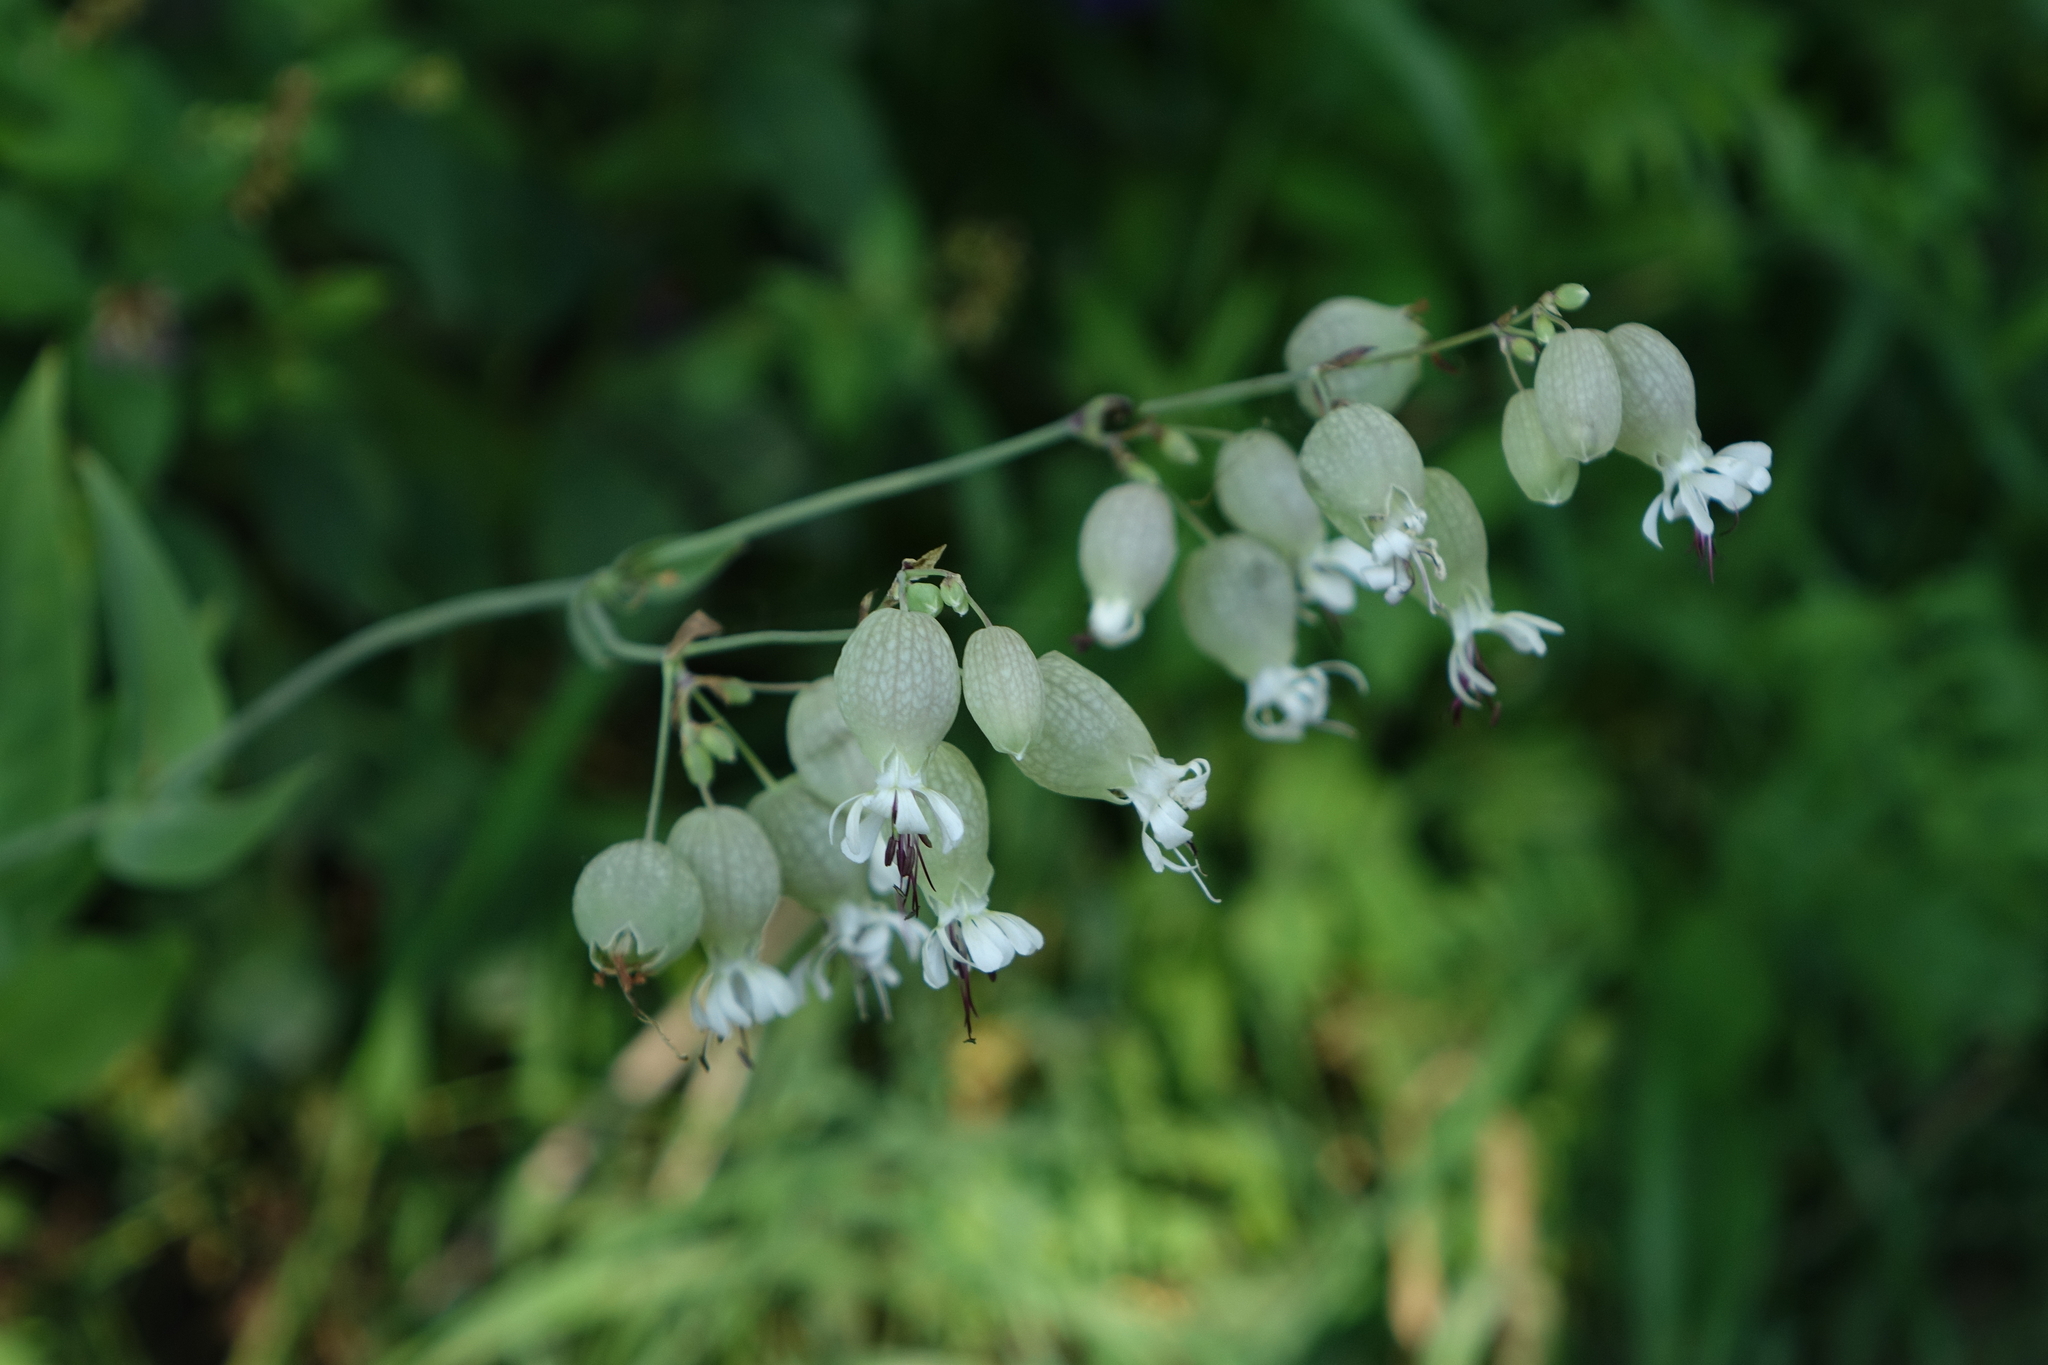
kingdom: Plantae
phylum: Tracheophyta
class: Magnoliopsida
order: Caryophyllales
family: Caryophyllaceae
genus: Silene
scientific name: Silene vulgaris
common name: Bladder campion
